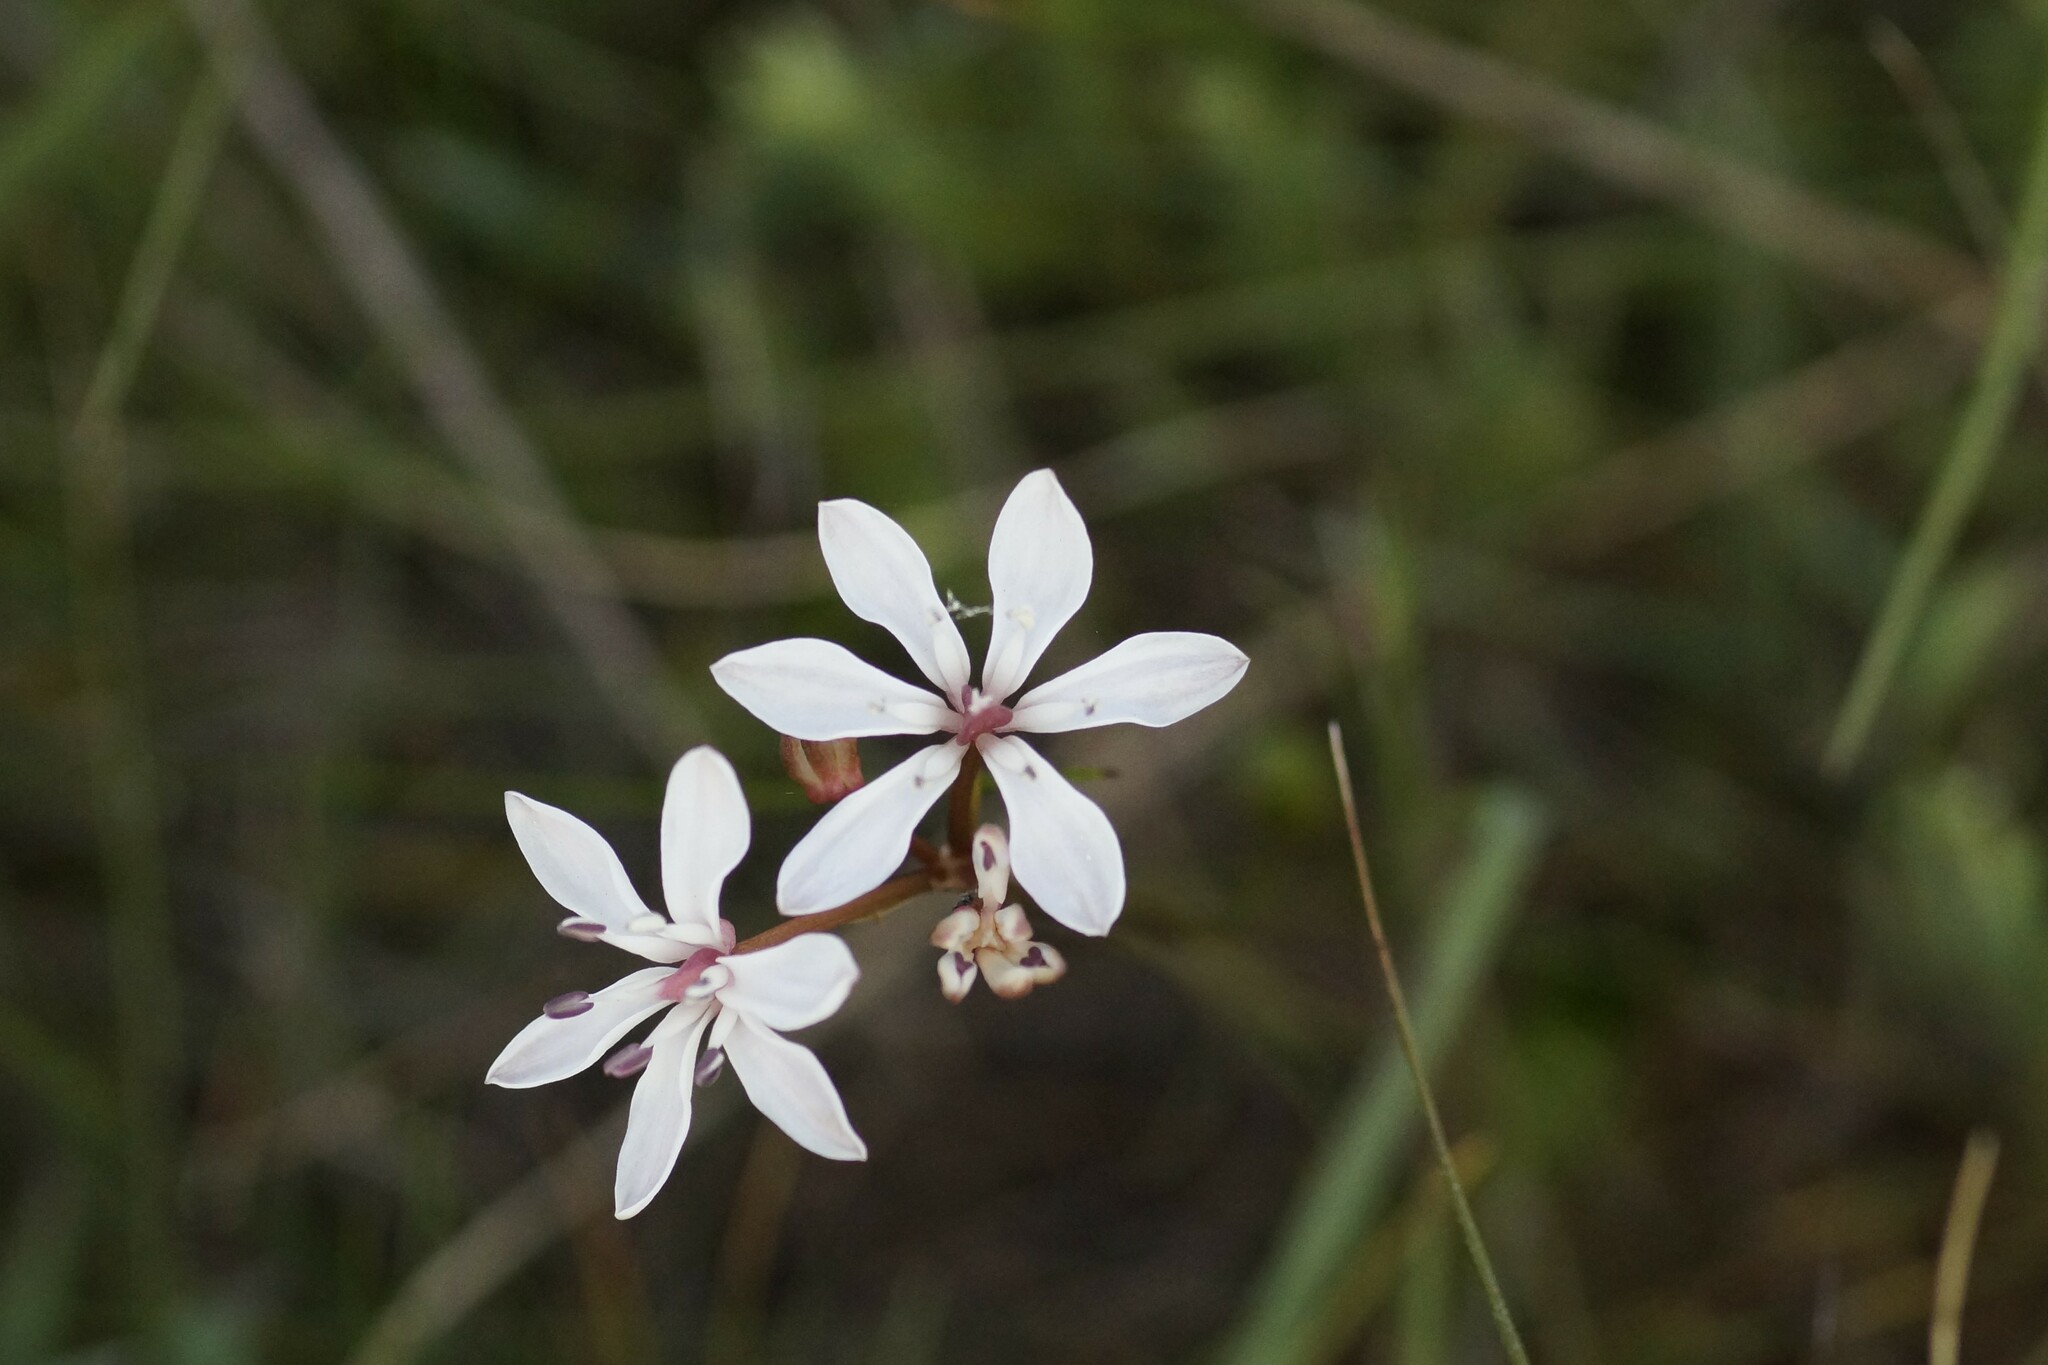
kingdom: Plantae
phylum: Tracheophyta
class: Liliopsida
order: Liliales
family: Colchicaceae
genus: Burchardia
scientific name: Burchardia umbellata
